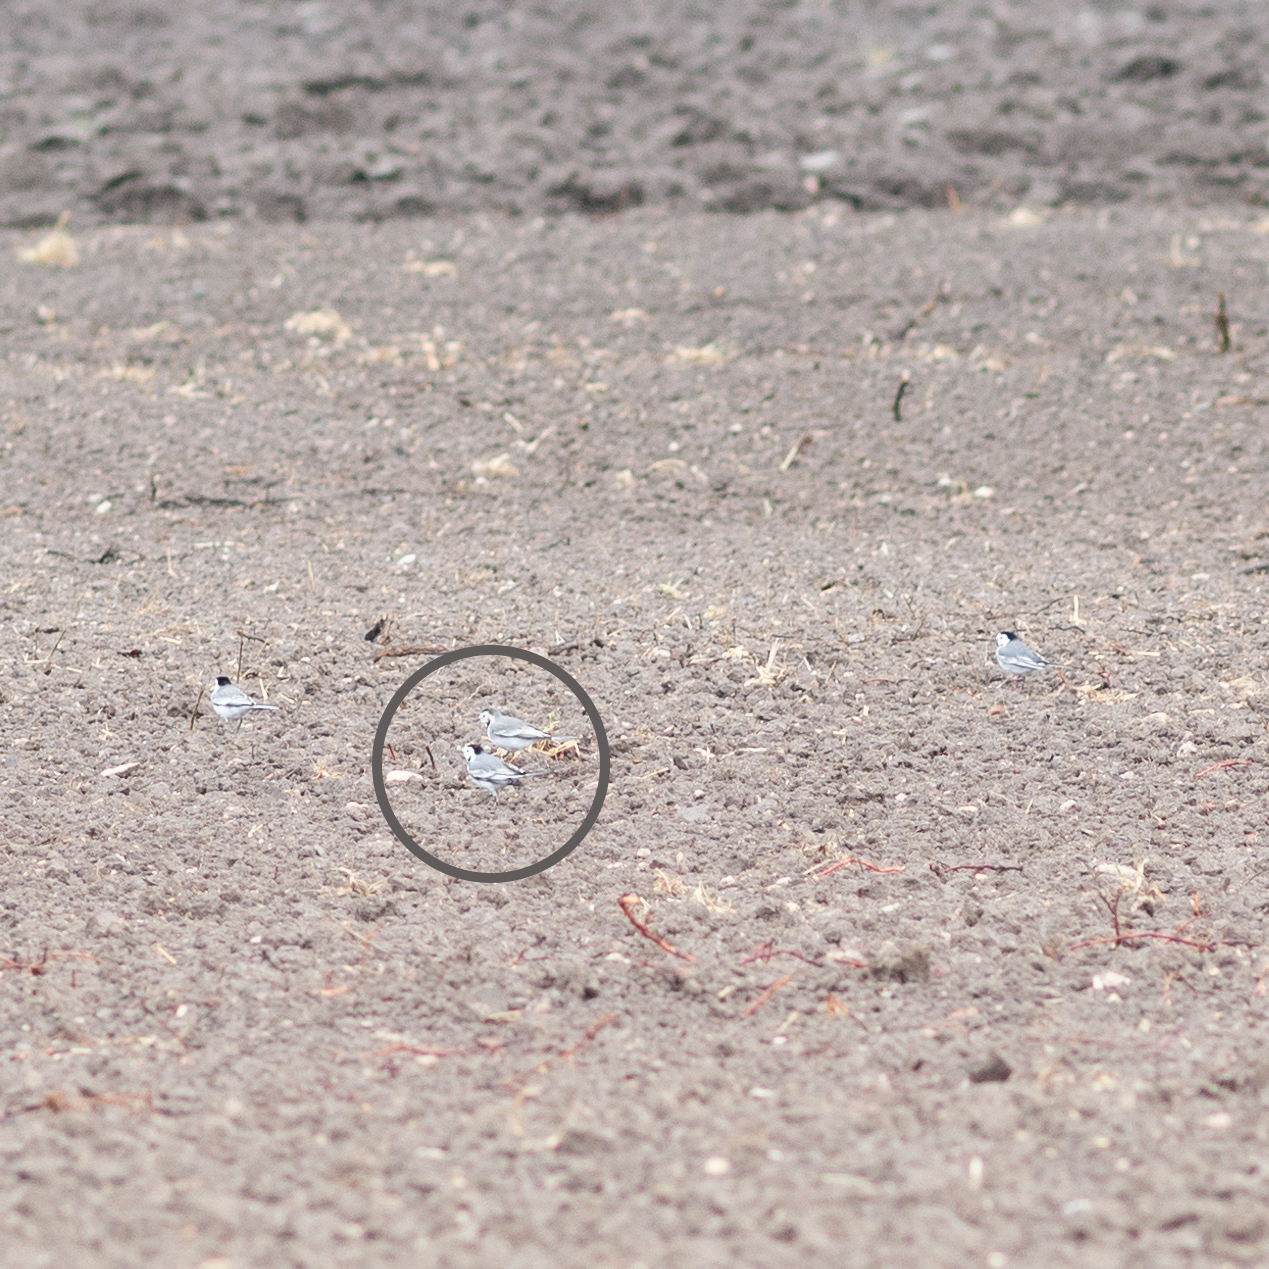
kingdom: Animalia
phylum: Chordata
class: Aves
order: Passeriformes
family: Motacillidae
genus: Motacilla
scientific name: Motacilla alba
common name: White wagtail
